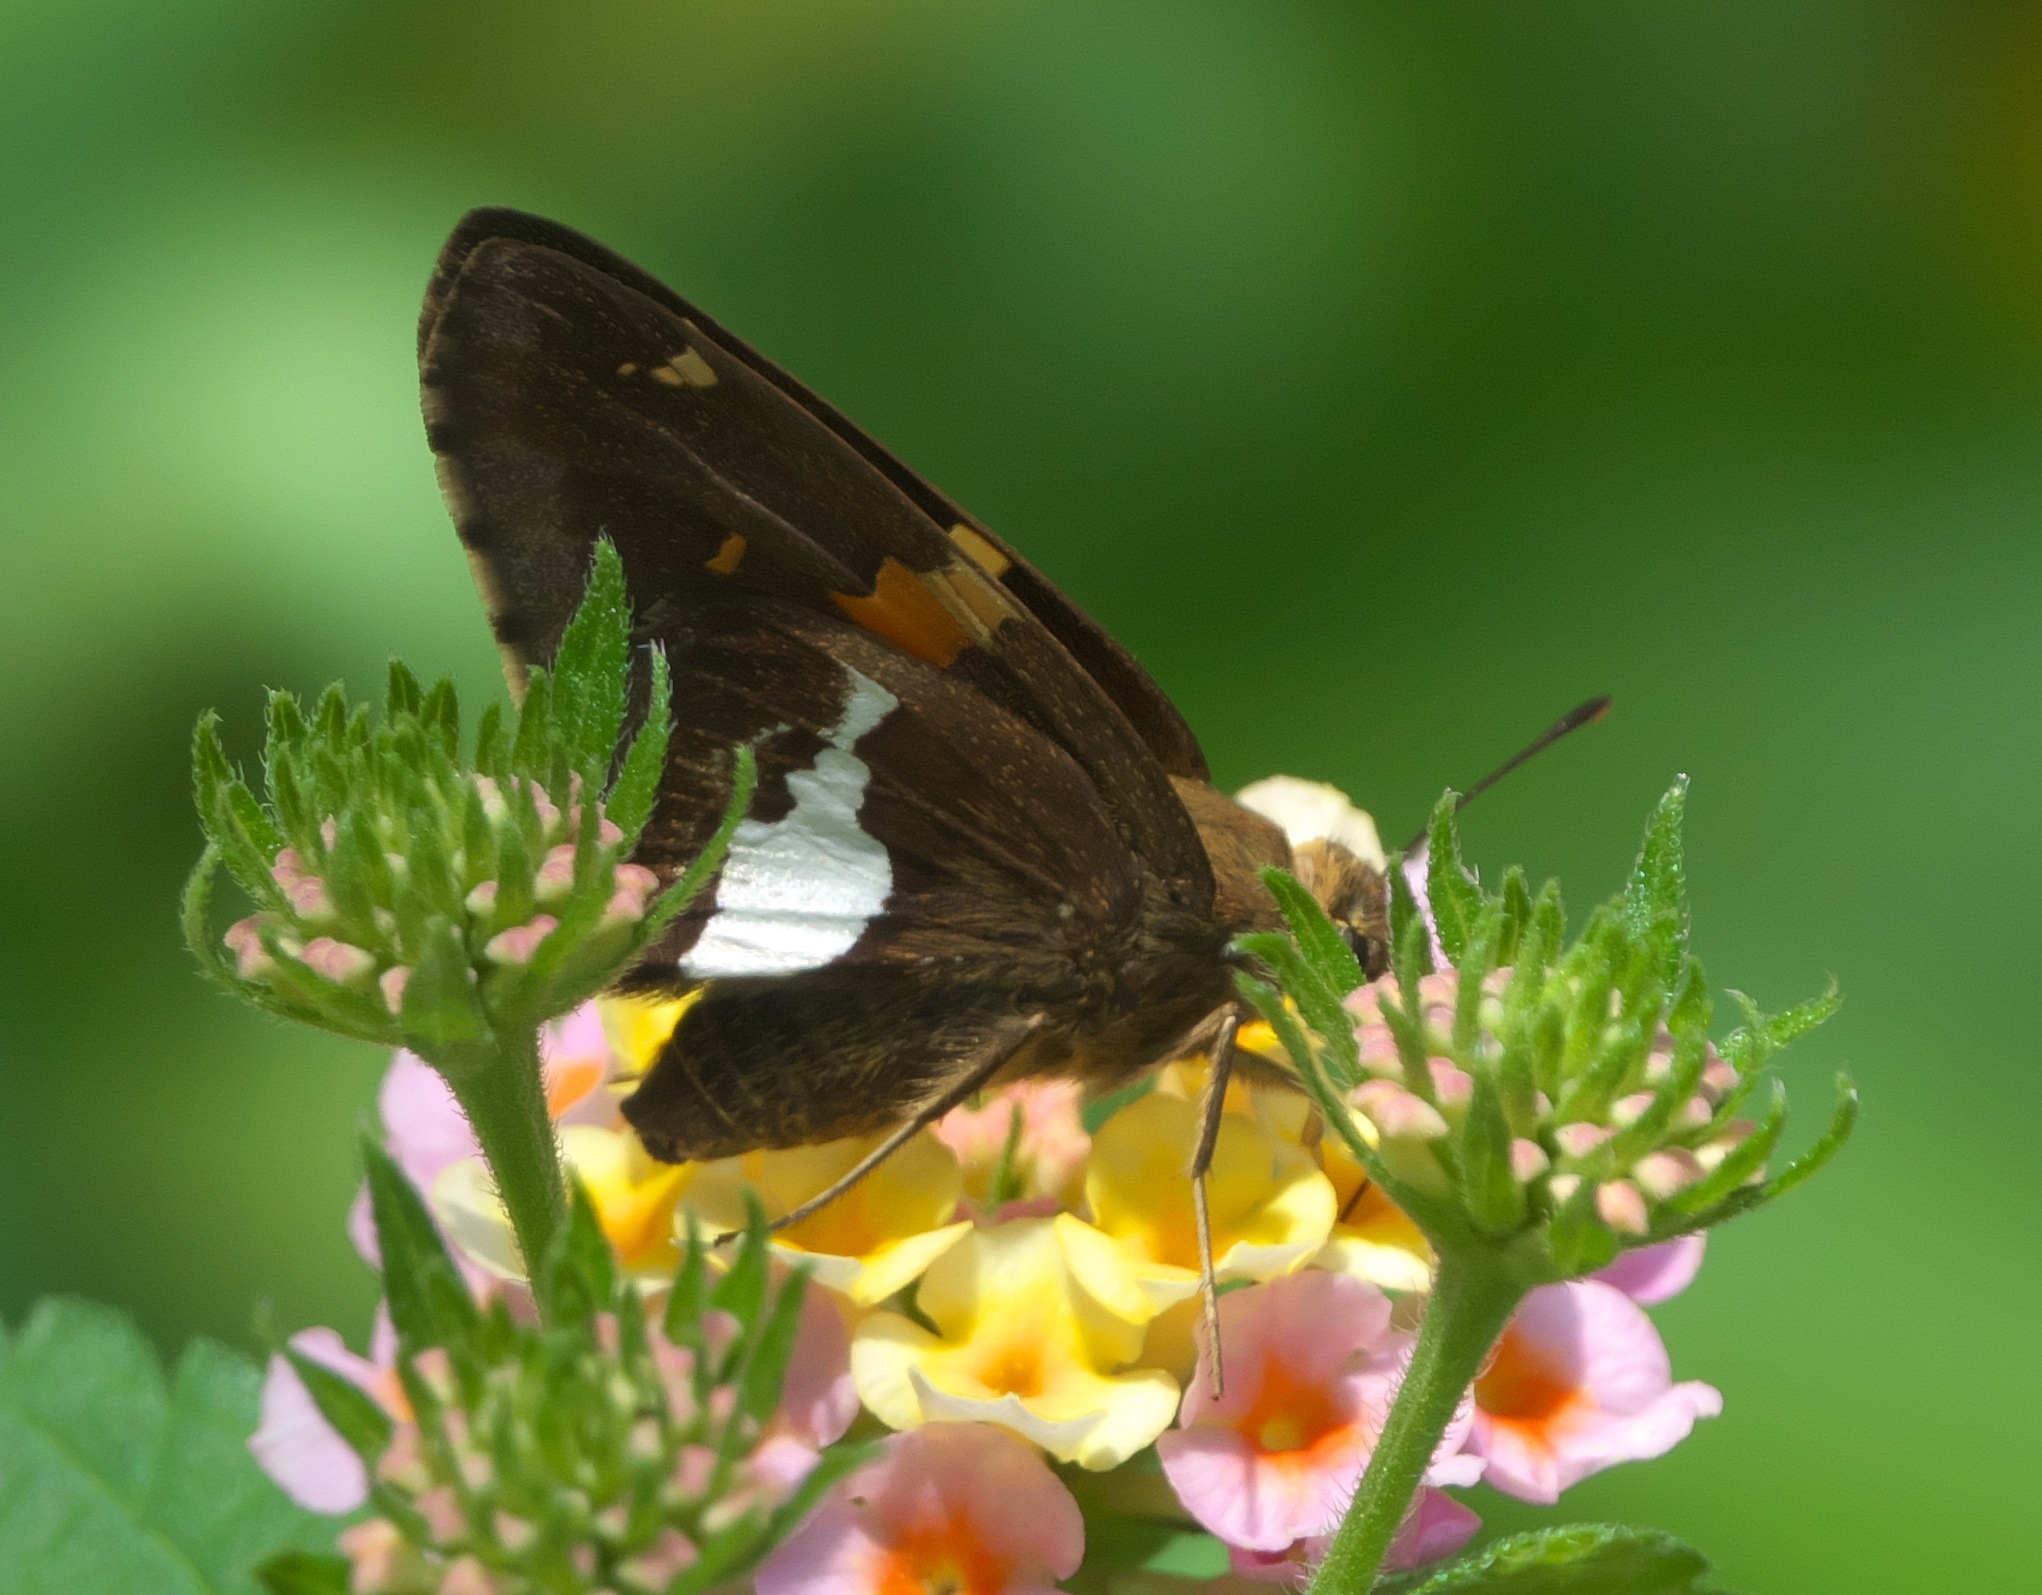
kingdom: Animalia
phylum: Arthropoda
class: Insecta
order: Lepidoptera
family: Hesperiidae
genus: Epargyreus
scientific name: Epargyreus clarus
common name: Silver-spotted skipper
